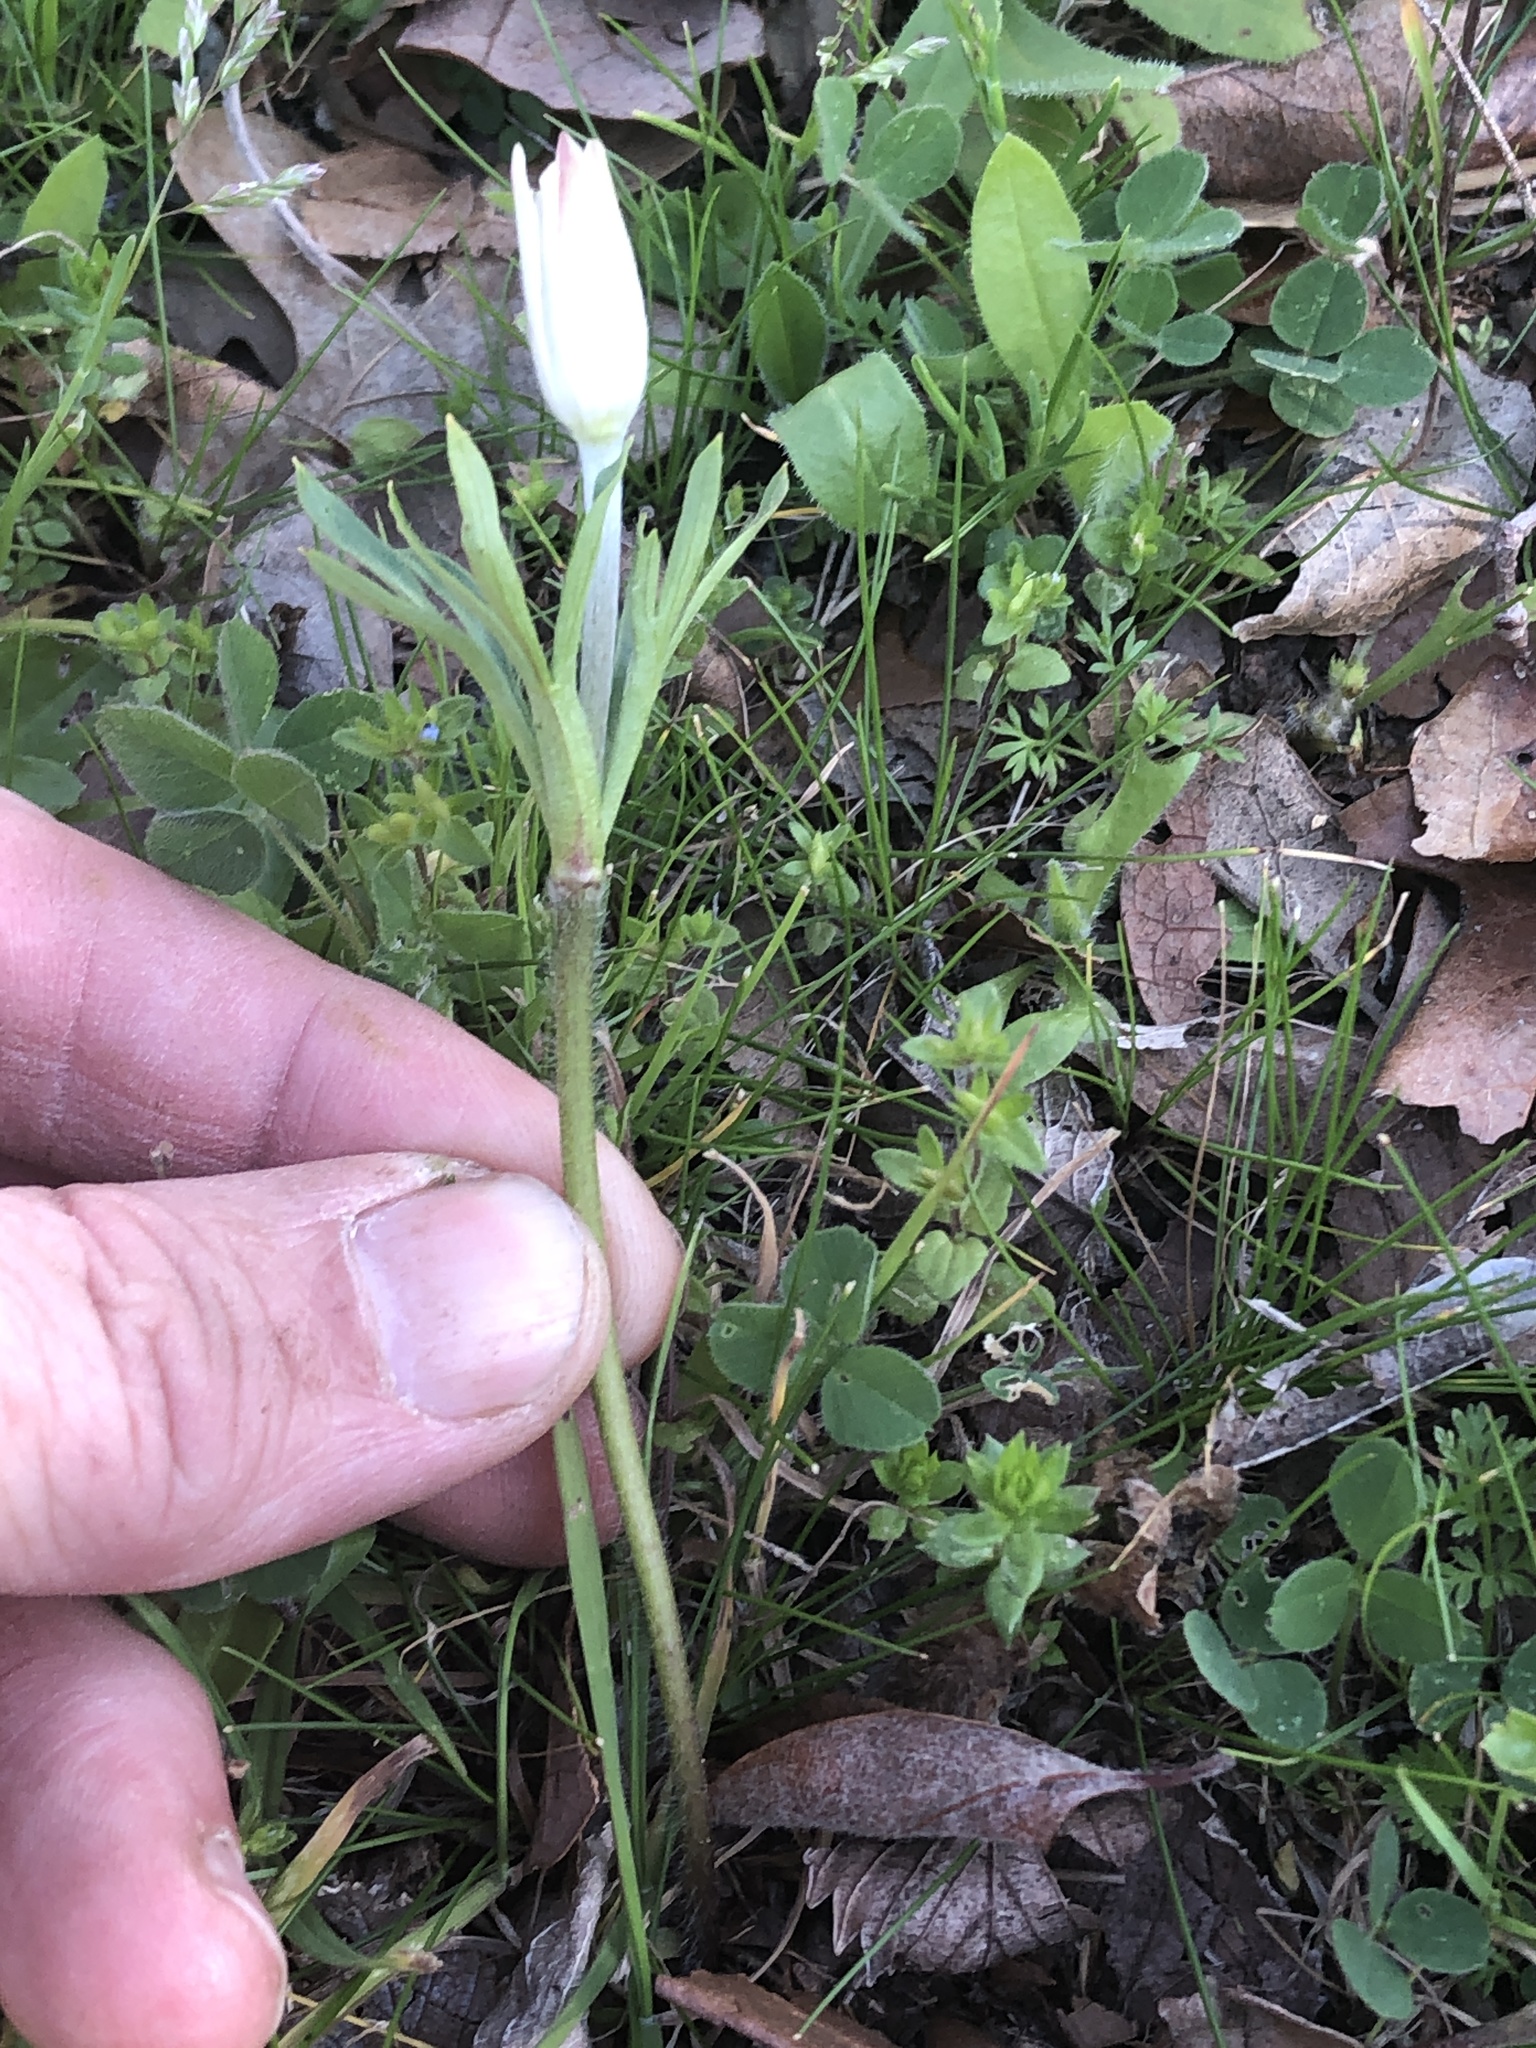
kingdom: Plantae
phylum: Tracheophyta
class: Magnoliopsida
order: Ranunculales
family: Ranunculaceae
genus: Anemone
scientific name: Anemone berlandieri
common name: Ten-petal anemone
